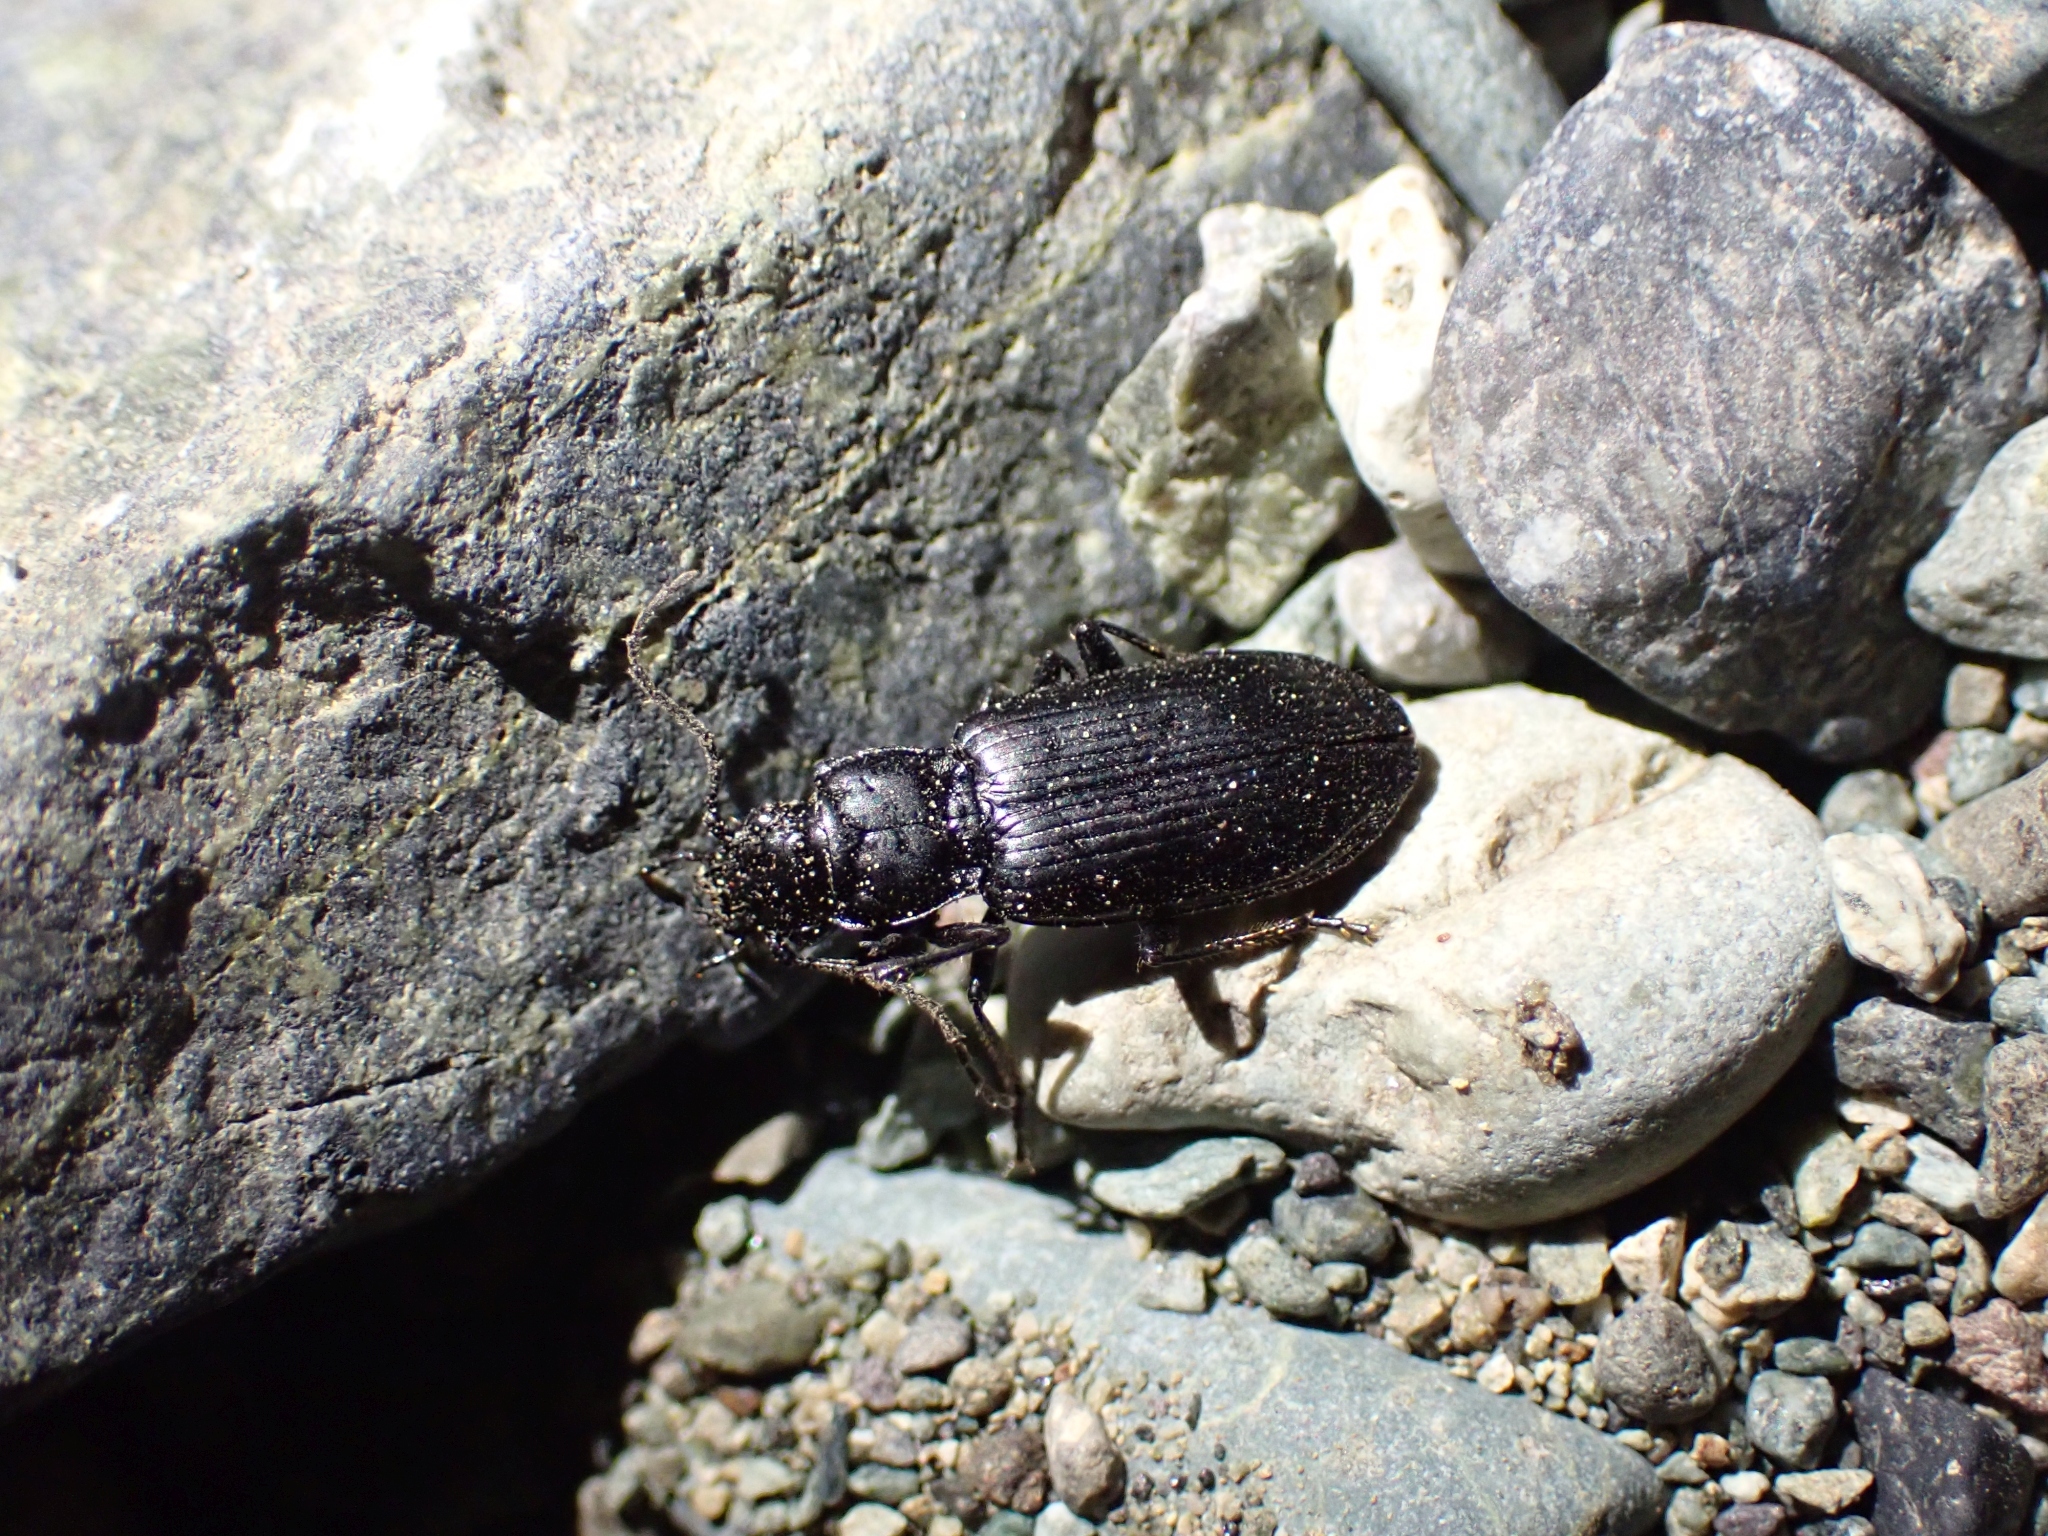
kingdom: Animalia
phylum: Arthropoda
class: Insecta
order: Coleoptera
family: Carabidae
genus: Diplous
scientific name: Diplous aterrimus
